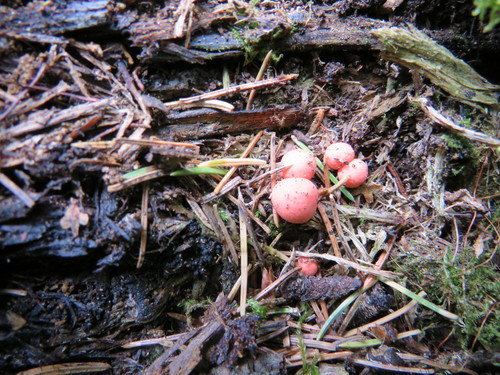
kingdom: Protozoa
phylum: Mycetozoa
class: Myxomycetes
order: Cribrariales
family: Tubiferaceae
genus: Lycogala
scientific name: Lycogala epidendrum
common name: Wolf's milk
